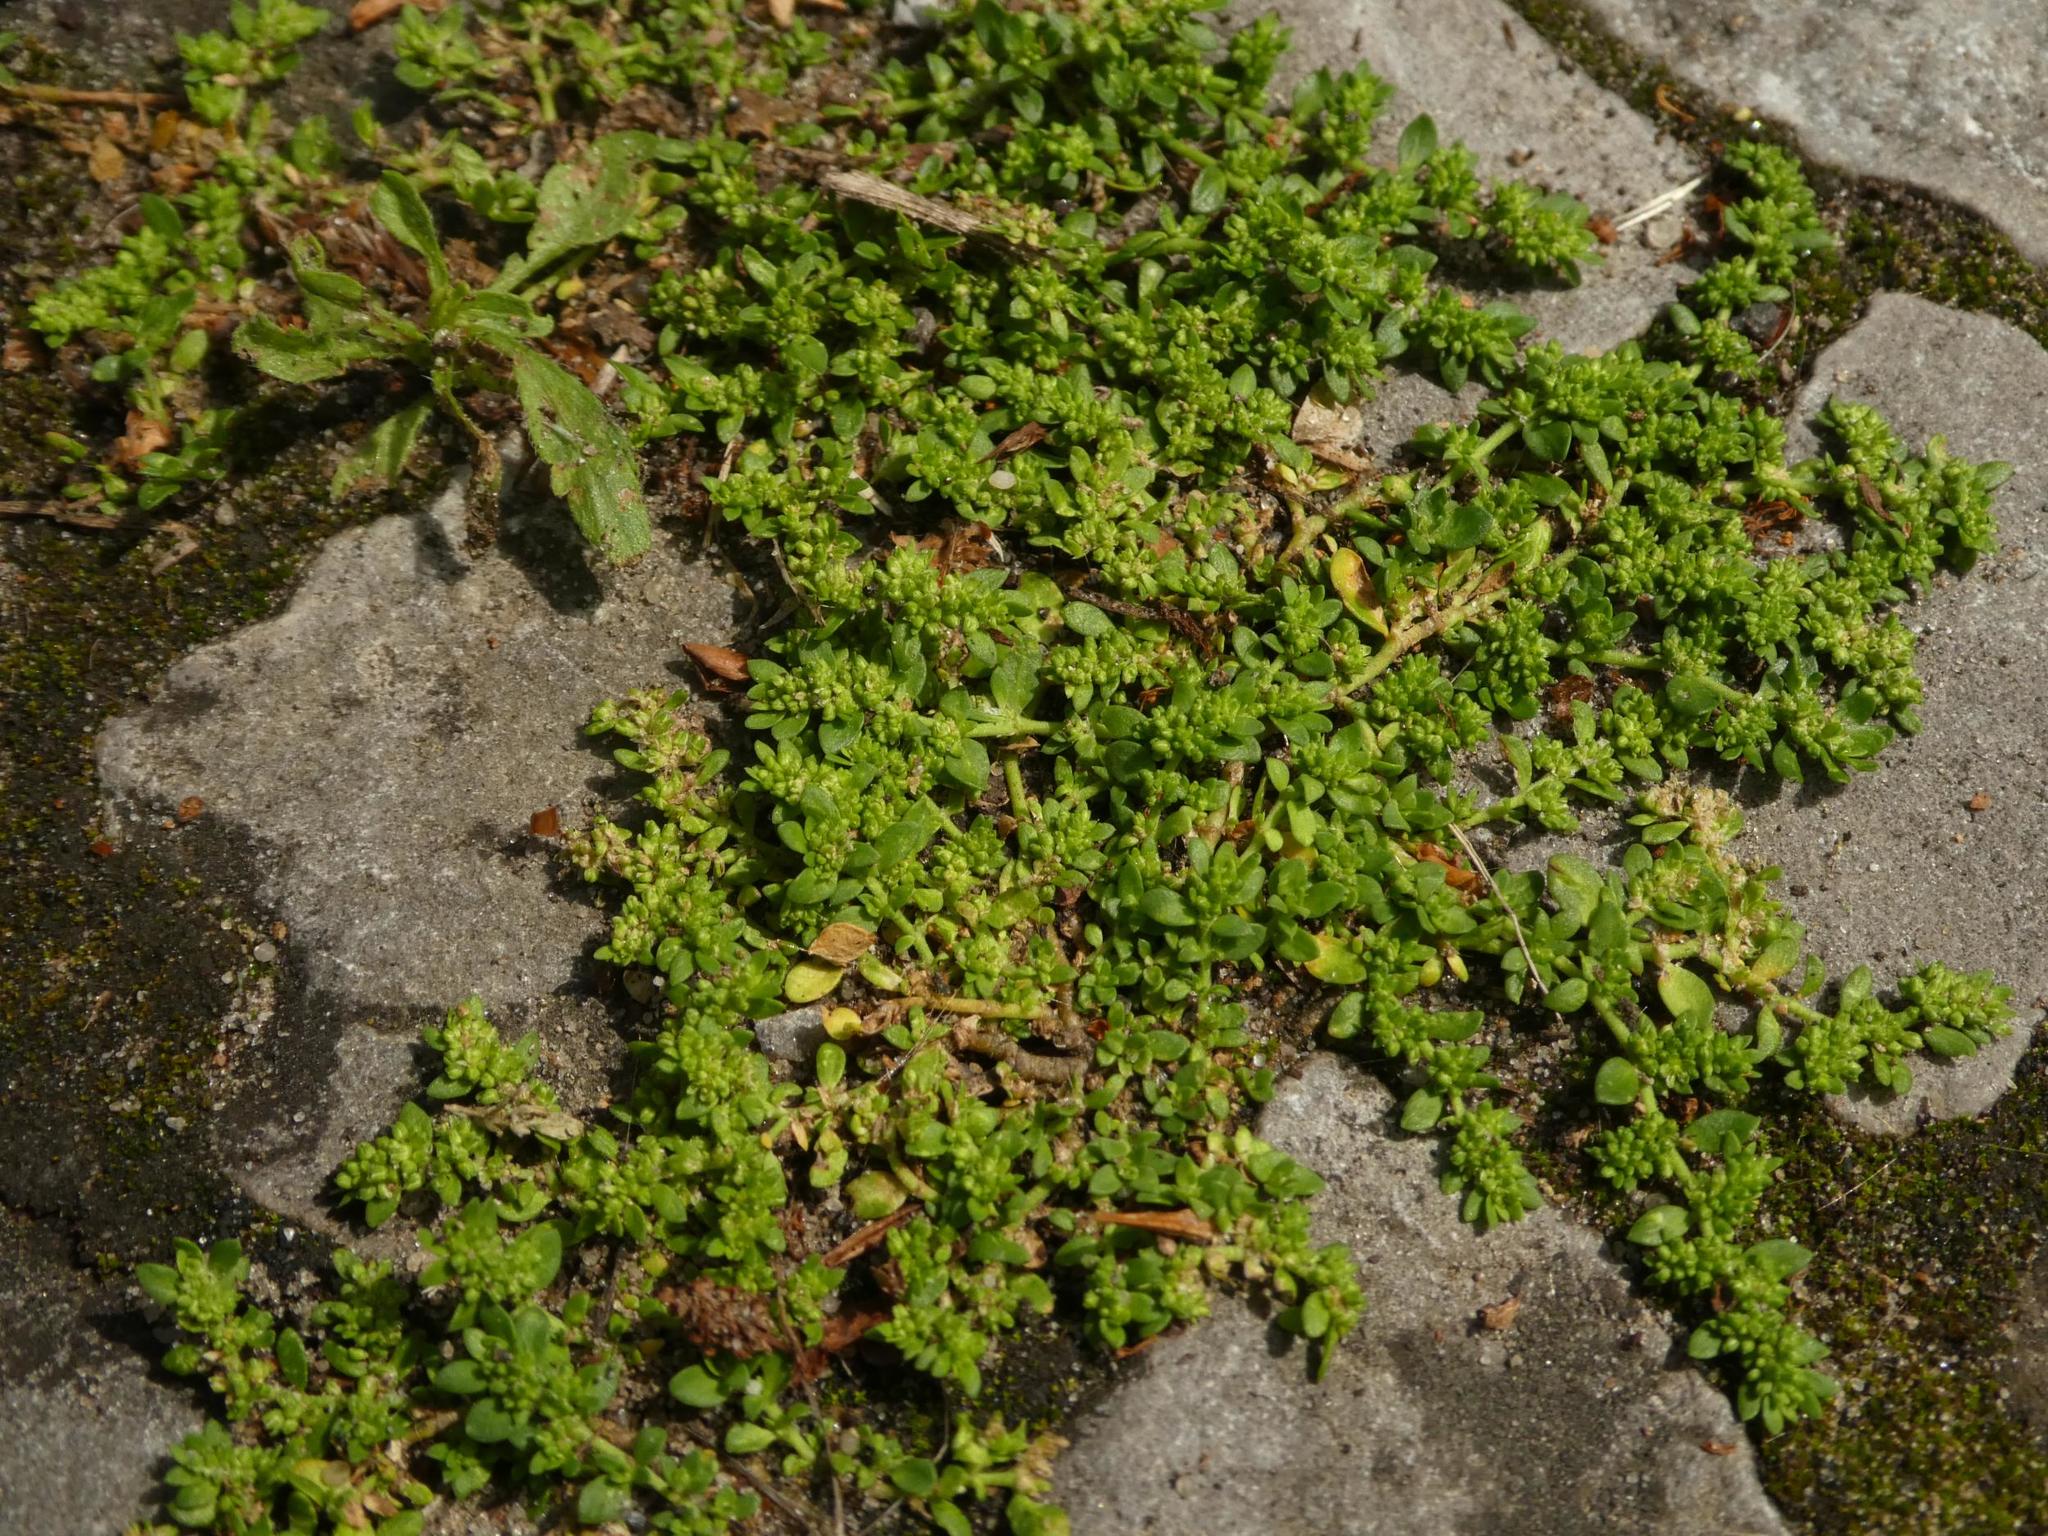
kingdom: Plantae
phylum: Tracheophyta
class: Magnoliopsida
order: Caryophyllales
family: Caryophyllaceae
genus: Herniaria
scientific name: Herniaria glabra
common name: Smooth rupturewort
